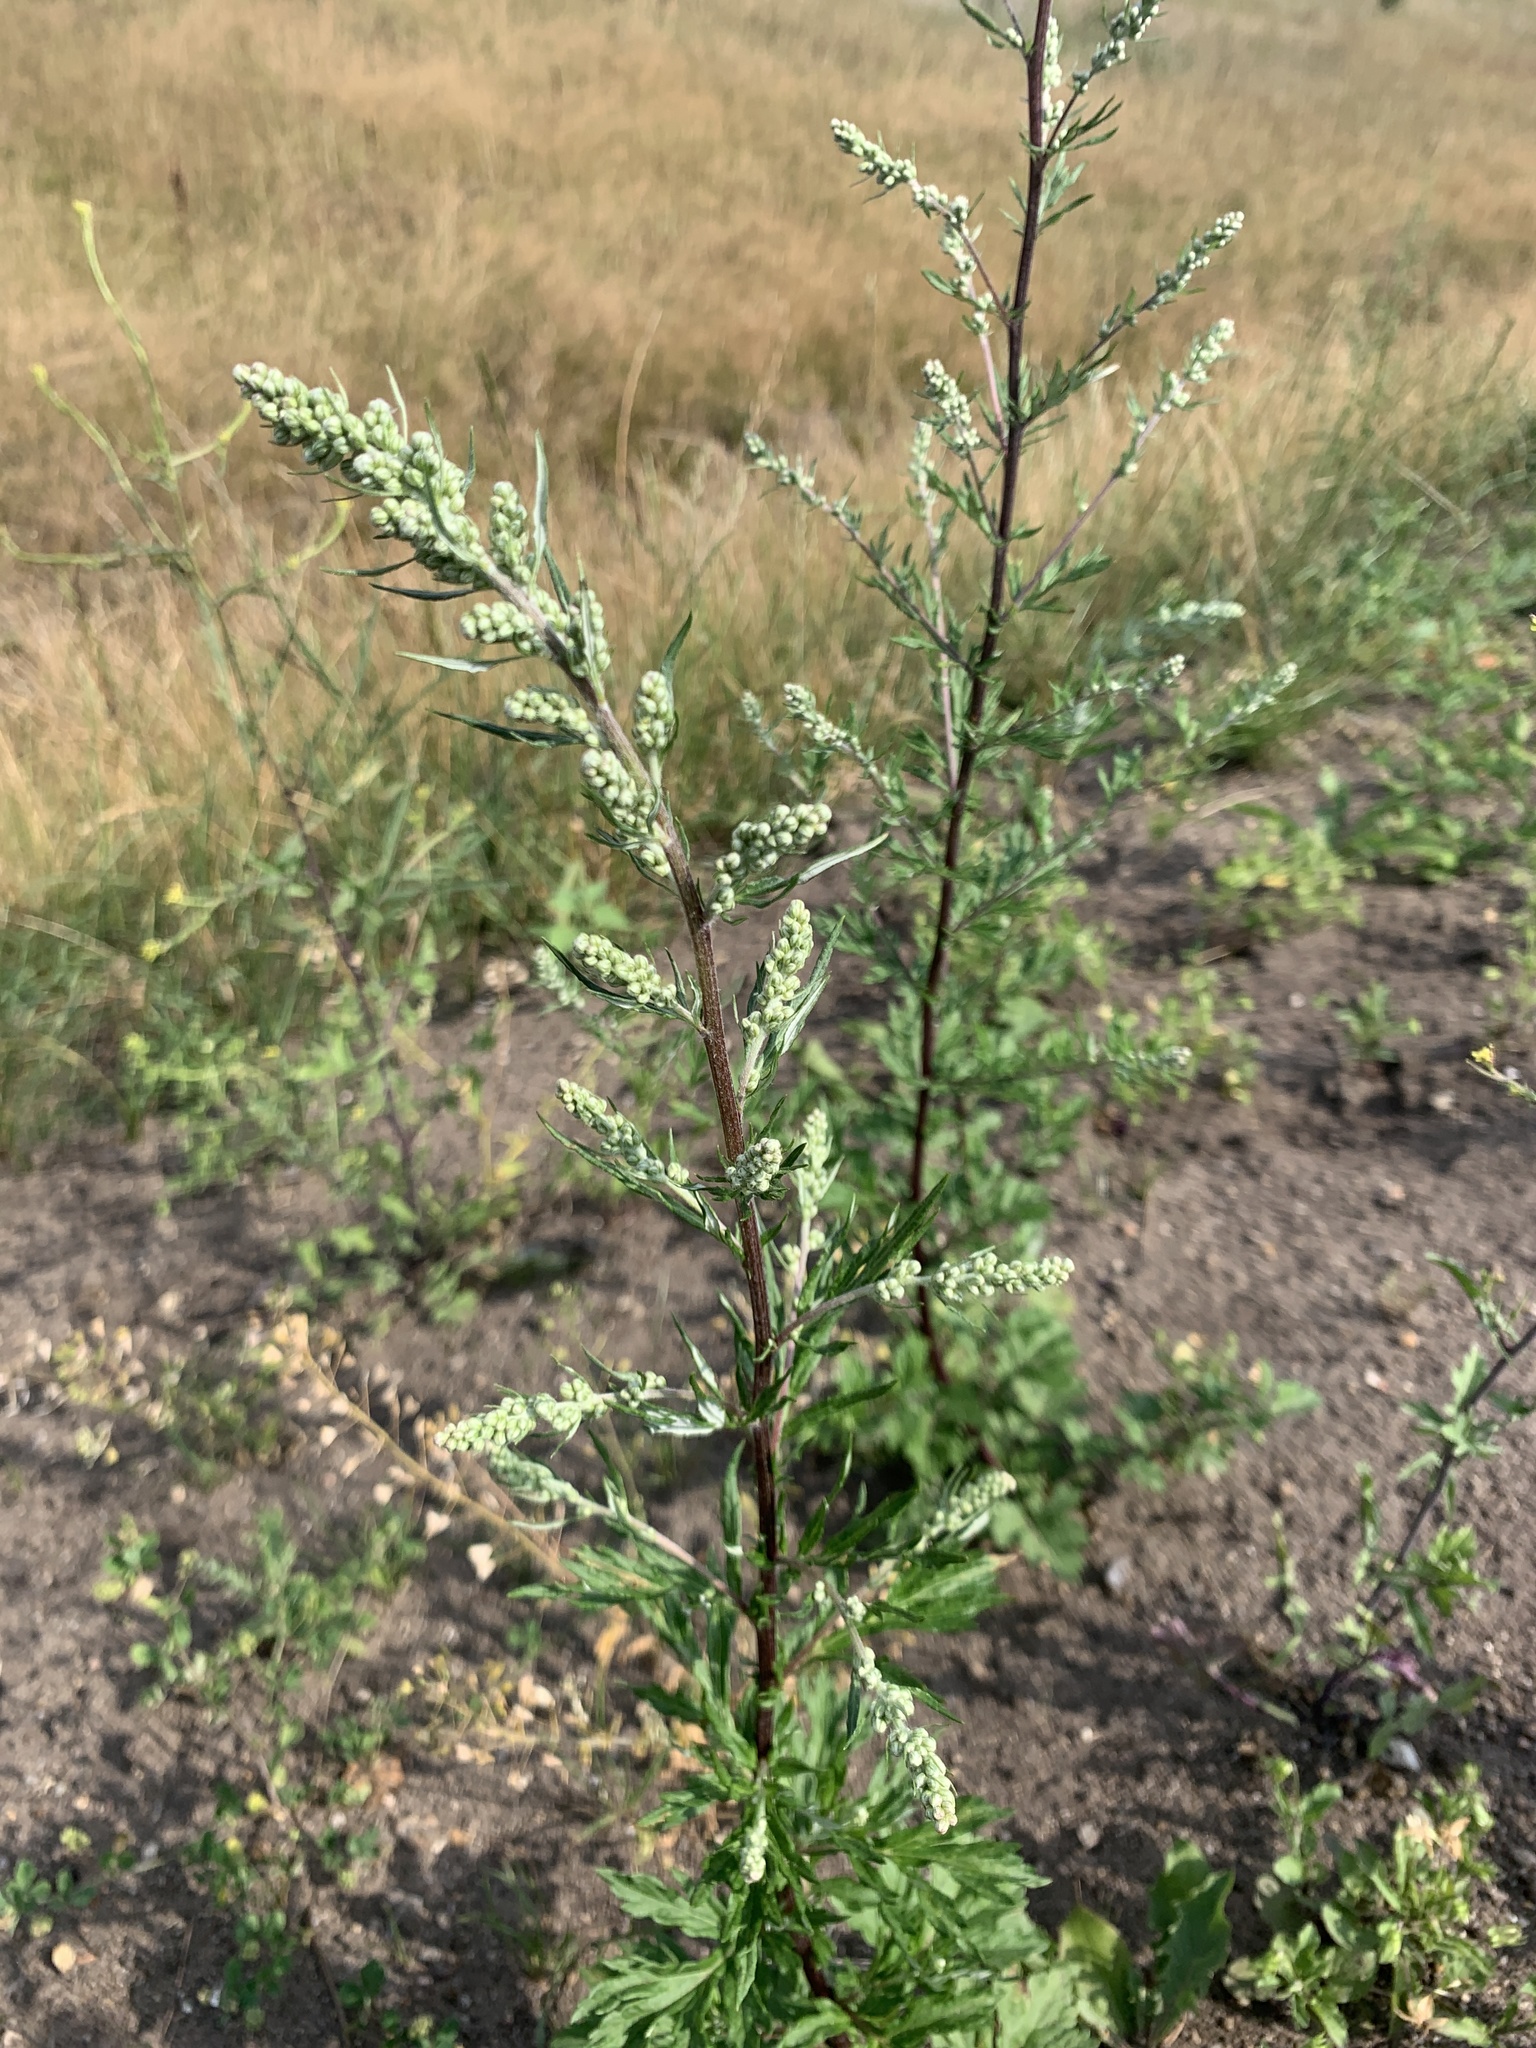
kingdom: Plantae
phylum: Tracheophyta
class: Magnoliopsida
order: Asterales
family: Asteraceae
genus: Artemisia
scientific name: Artemisia vulgaris
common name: Mugwort
